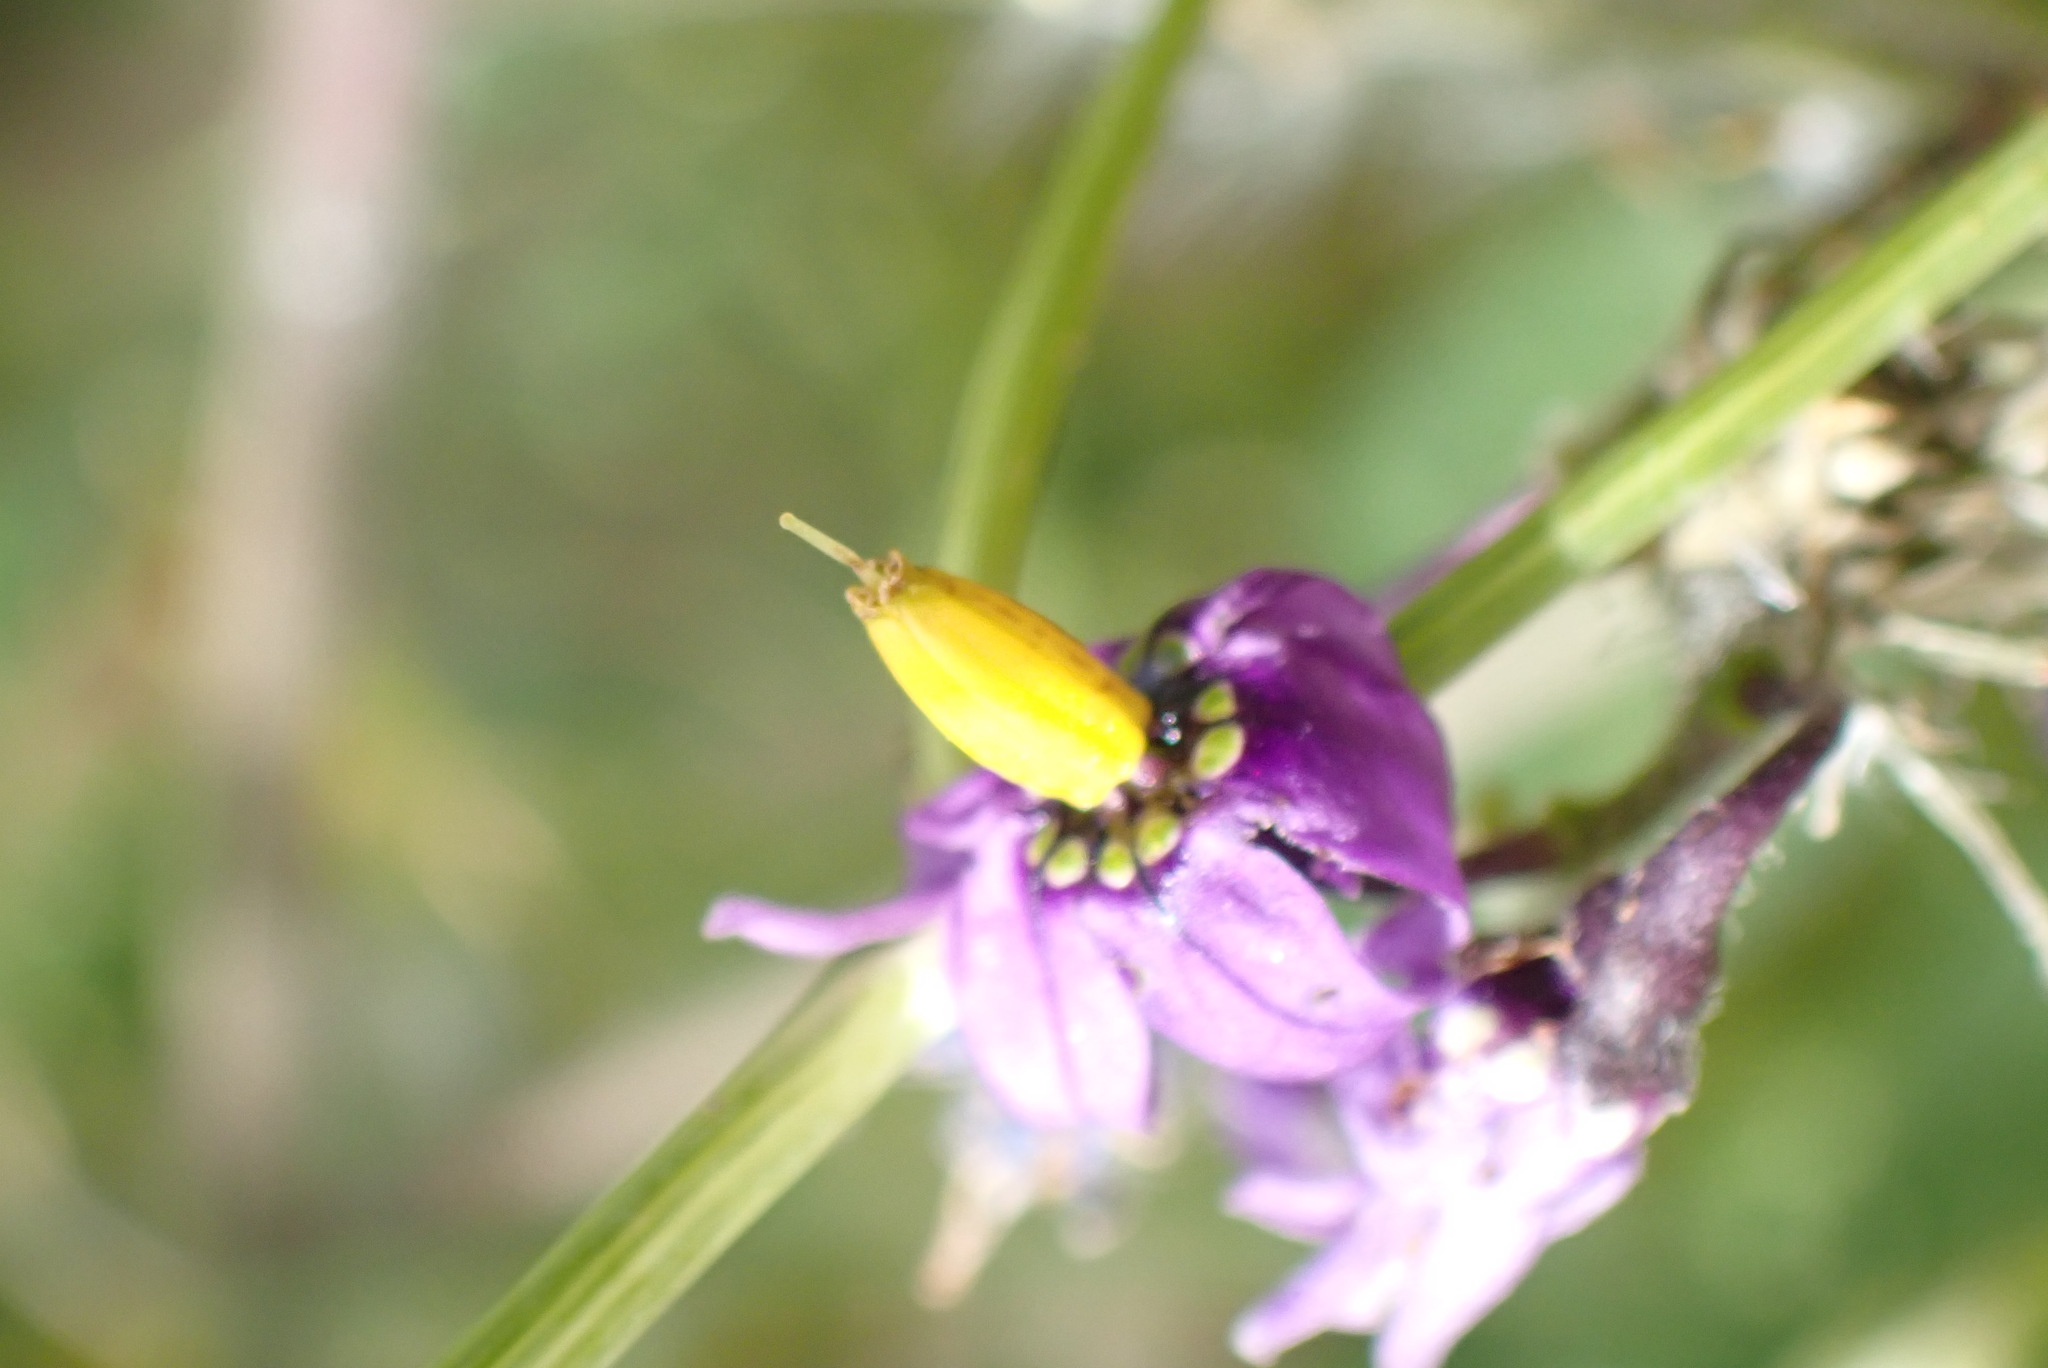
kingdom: Plantae
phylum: Tracheophyta
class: Magnoliopsida
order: Solanales
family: Solanaceae
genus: Solanum
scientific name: Solanum dulcamara
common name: Climbing nightshade
